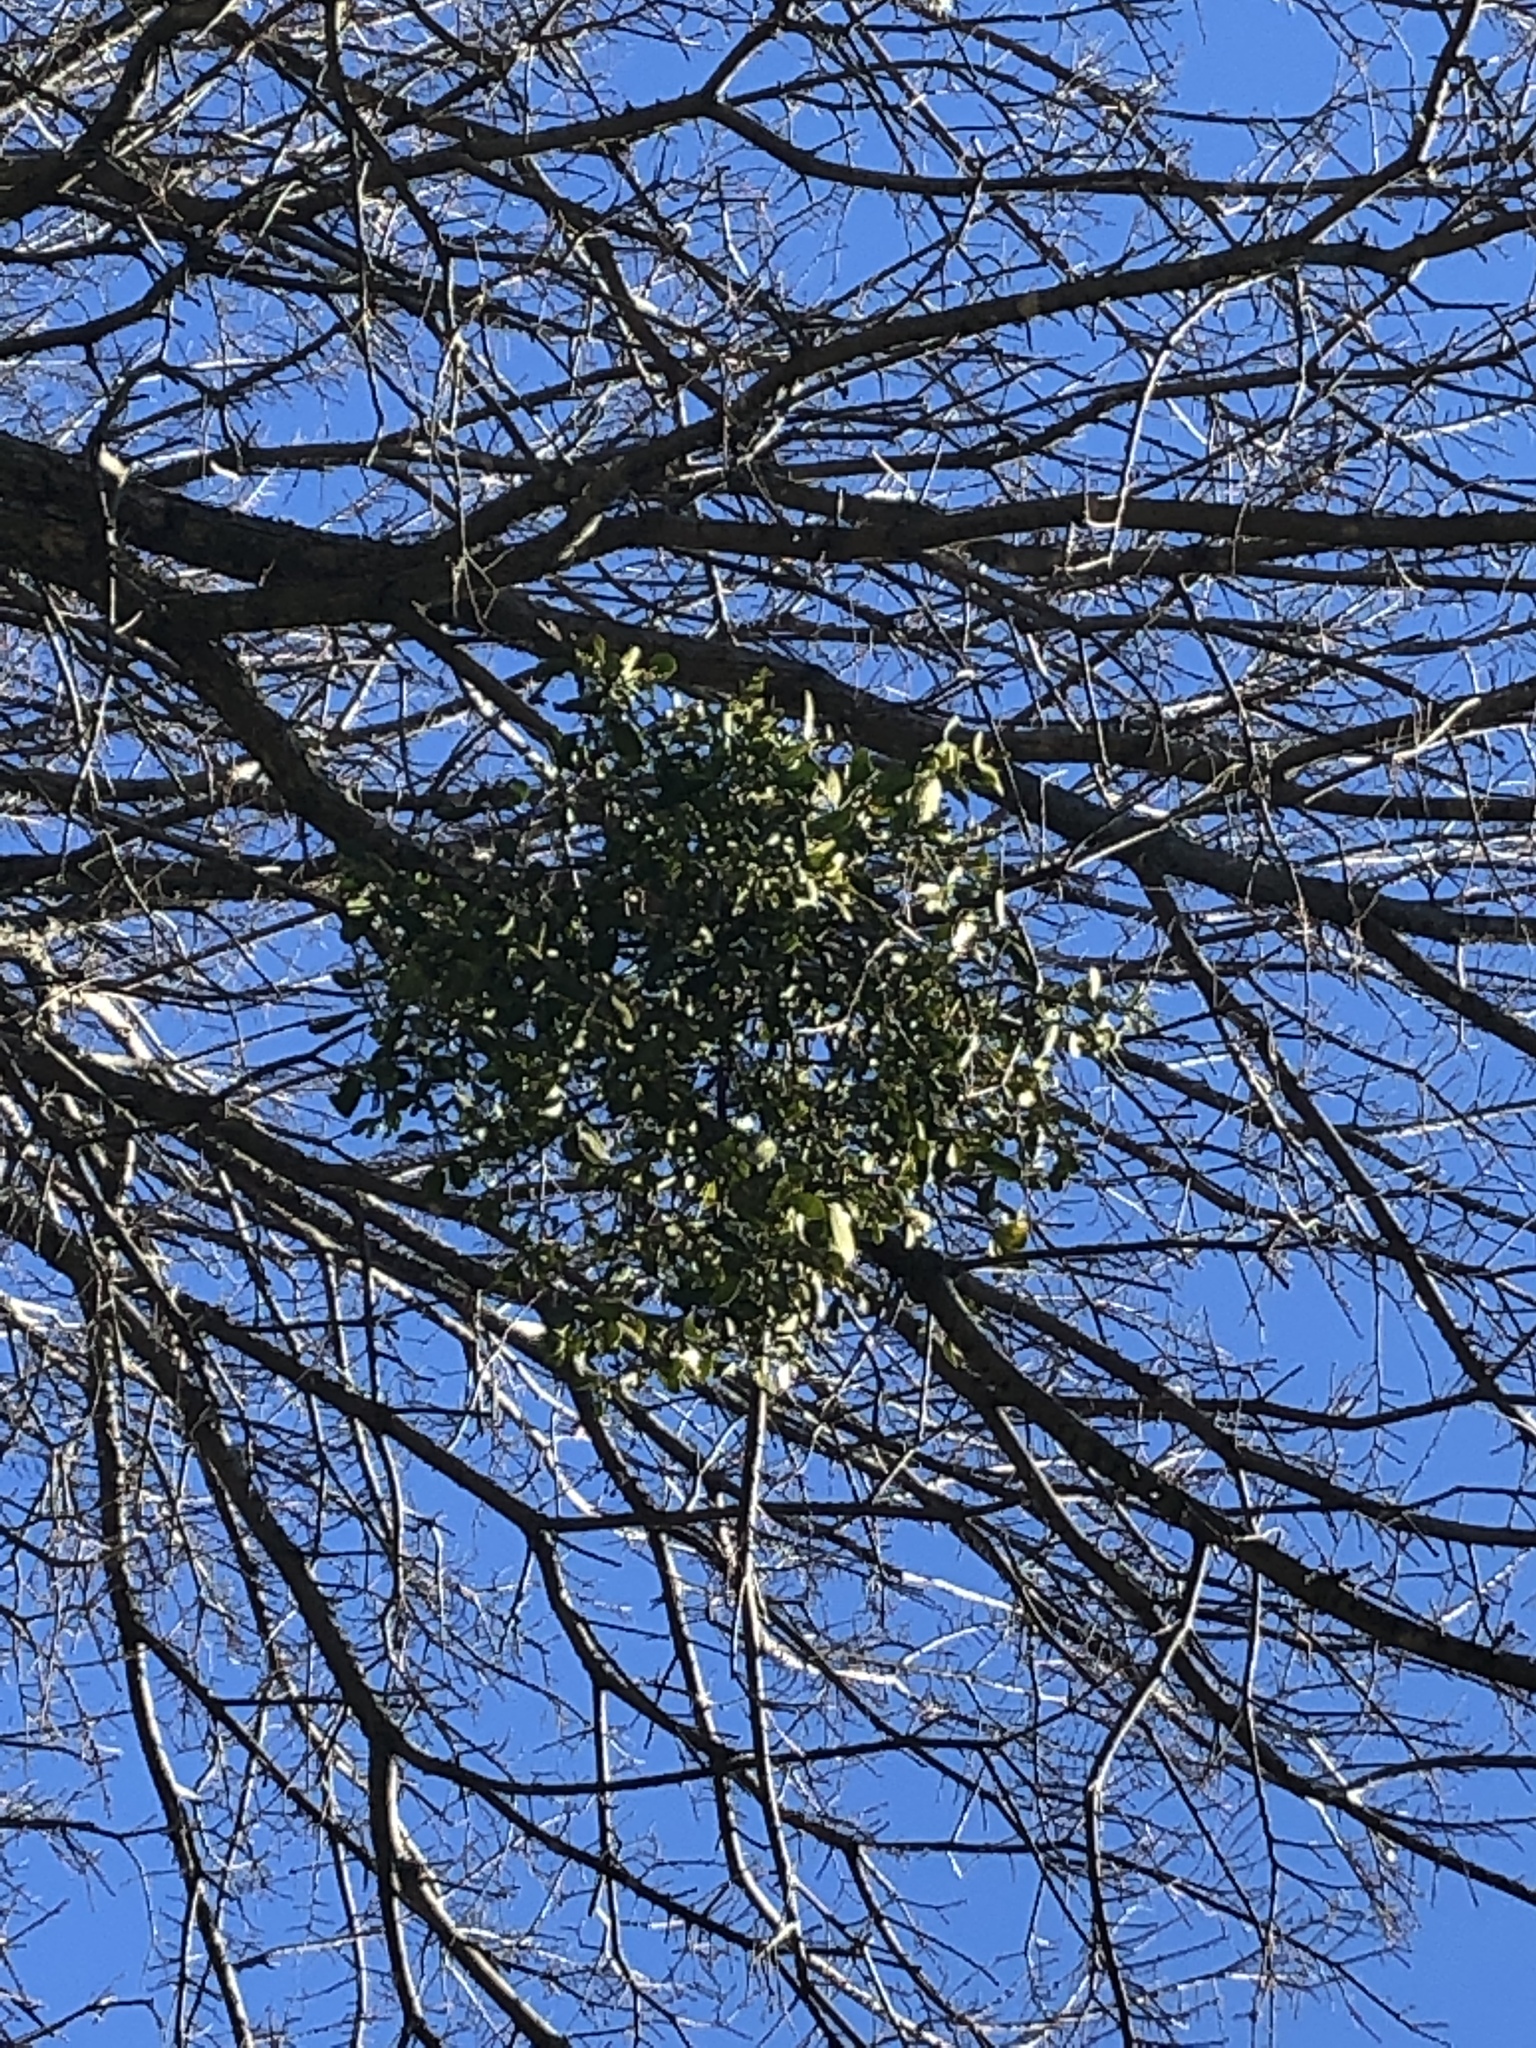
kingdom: Plantae
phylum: Tracheophyta
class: Magnoliopsida
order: Santalales
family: Viscaceae
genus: Phoradendron
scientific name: Phoradendron leucarpum
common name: Pacific mistletoe
